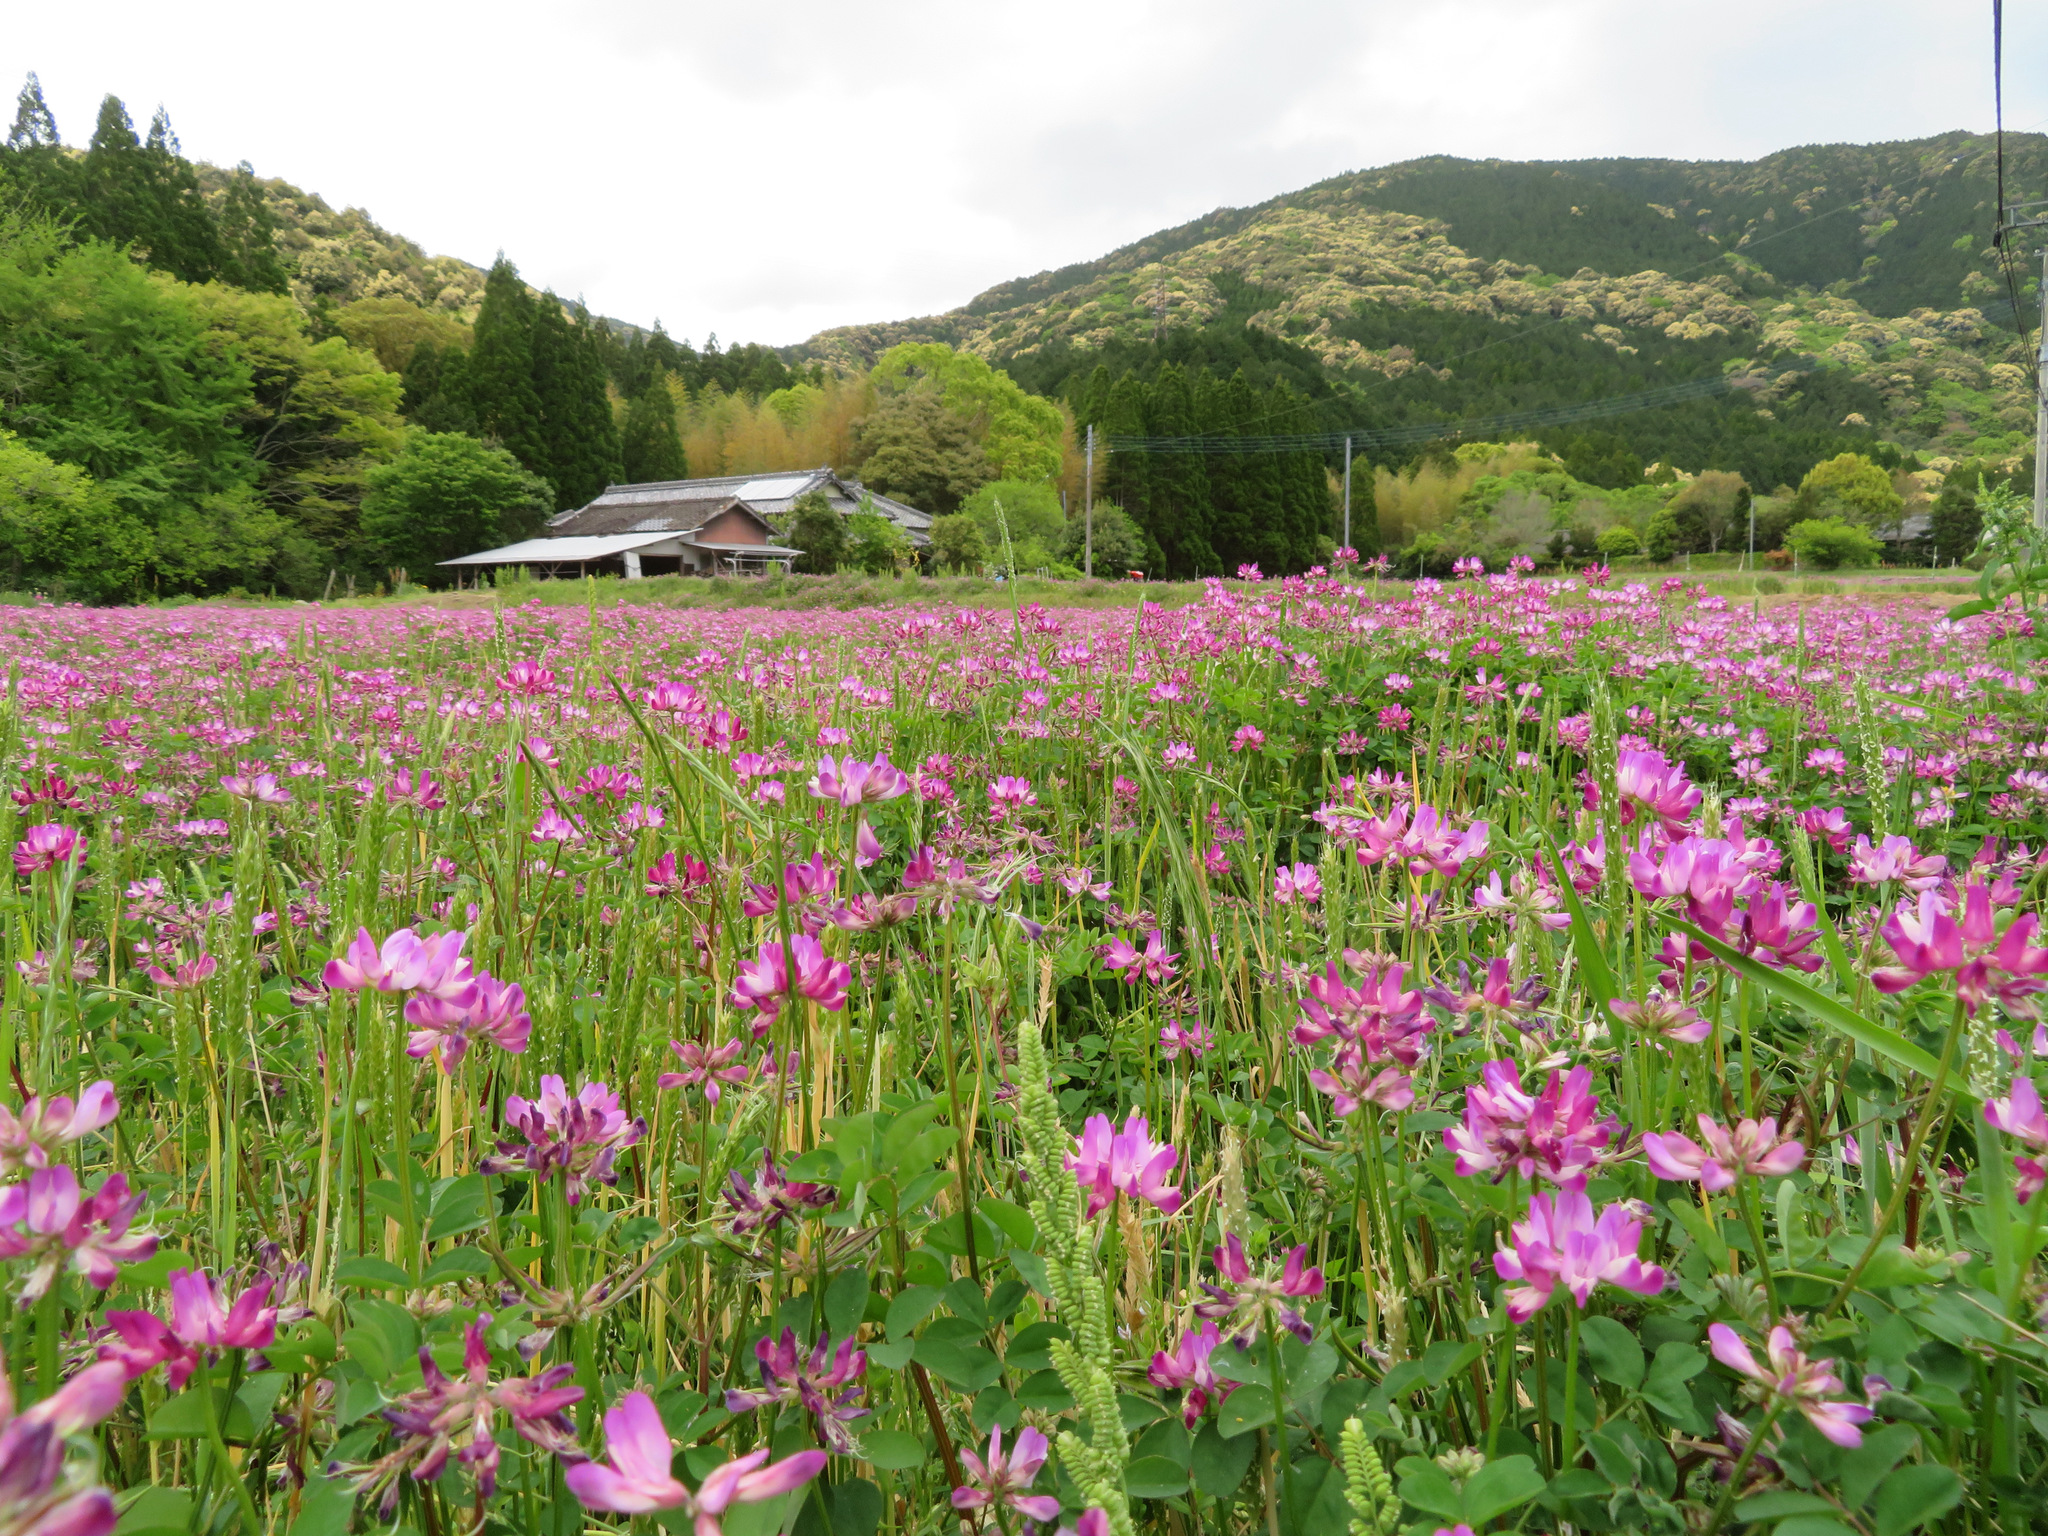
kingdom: Plantae
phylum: Tracheophyta
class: Magnoliopsida
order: Fabales
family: Fabaceae
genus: Astragalus
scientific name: Astragalus sinicus
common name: Chinese milk-vetch
